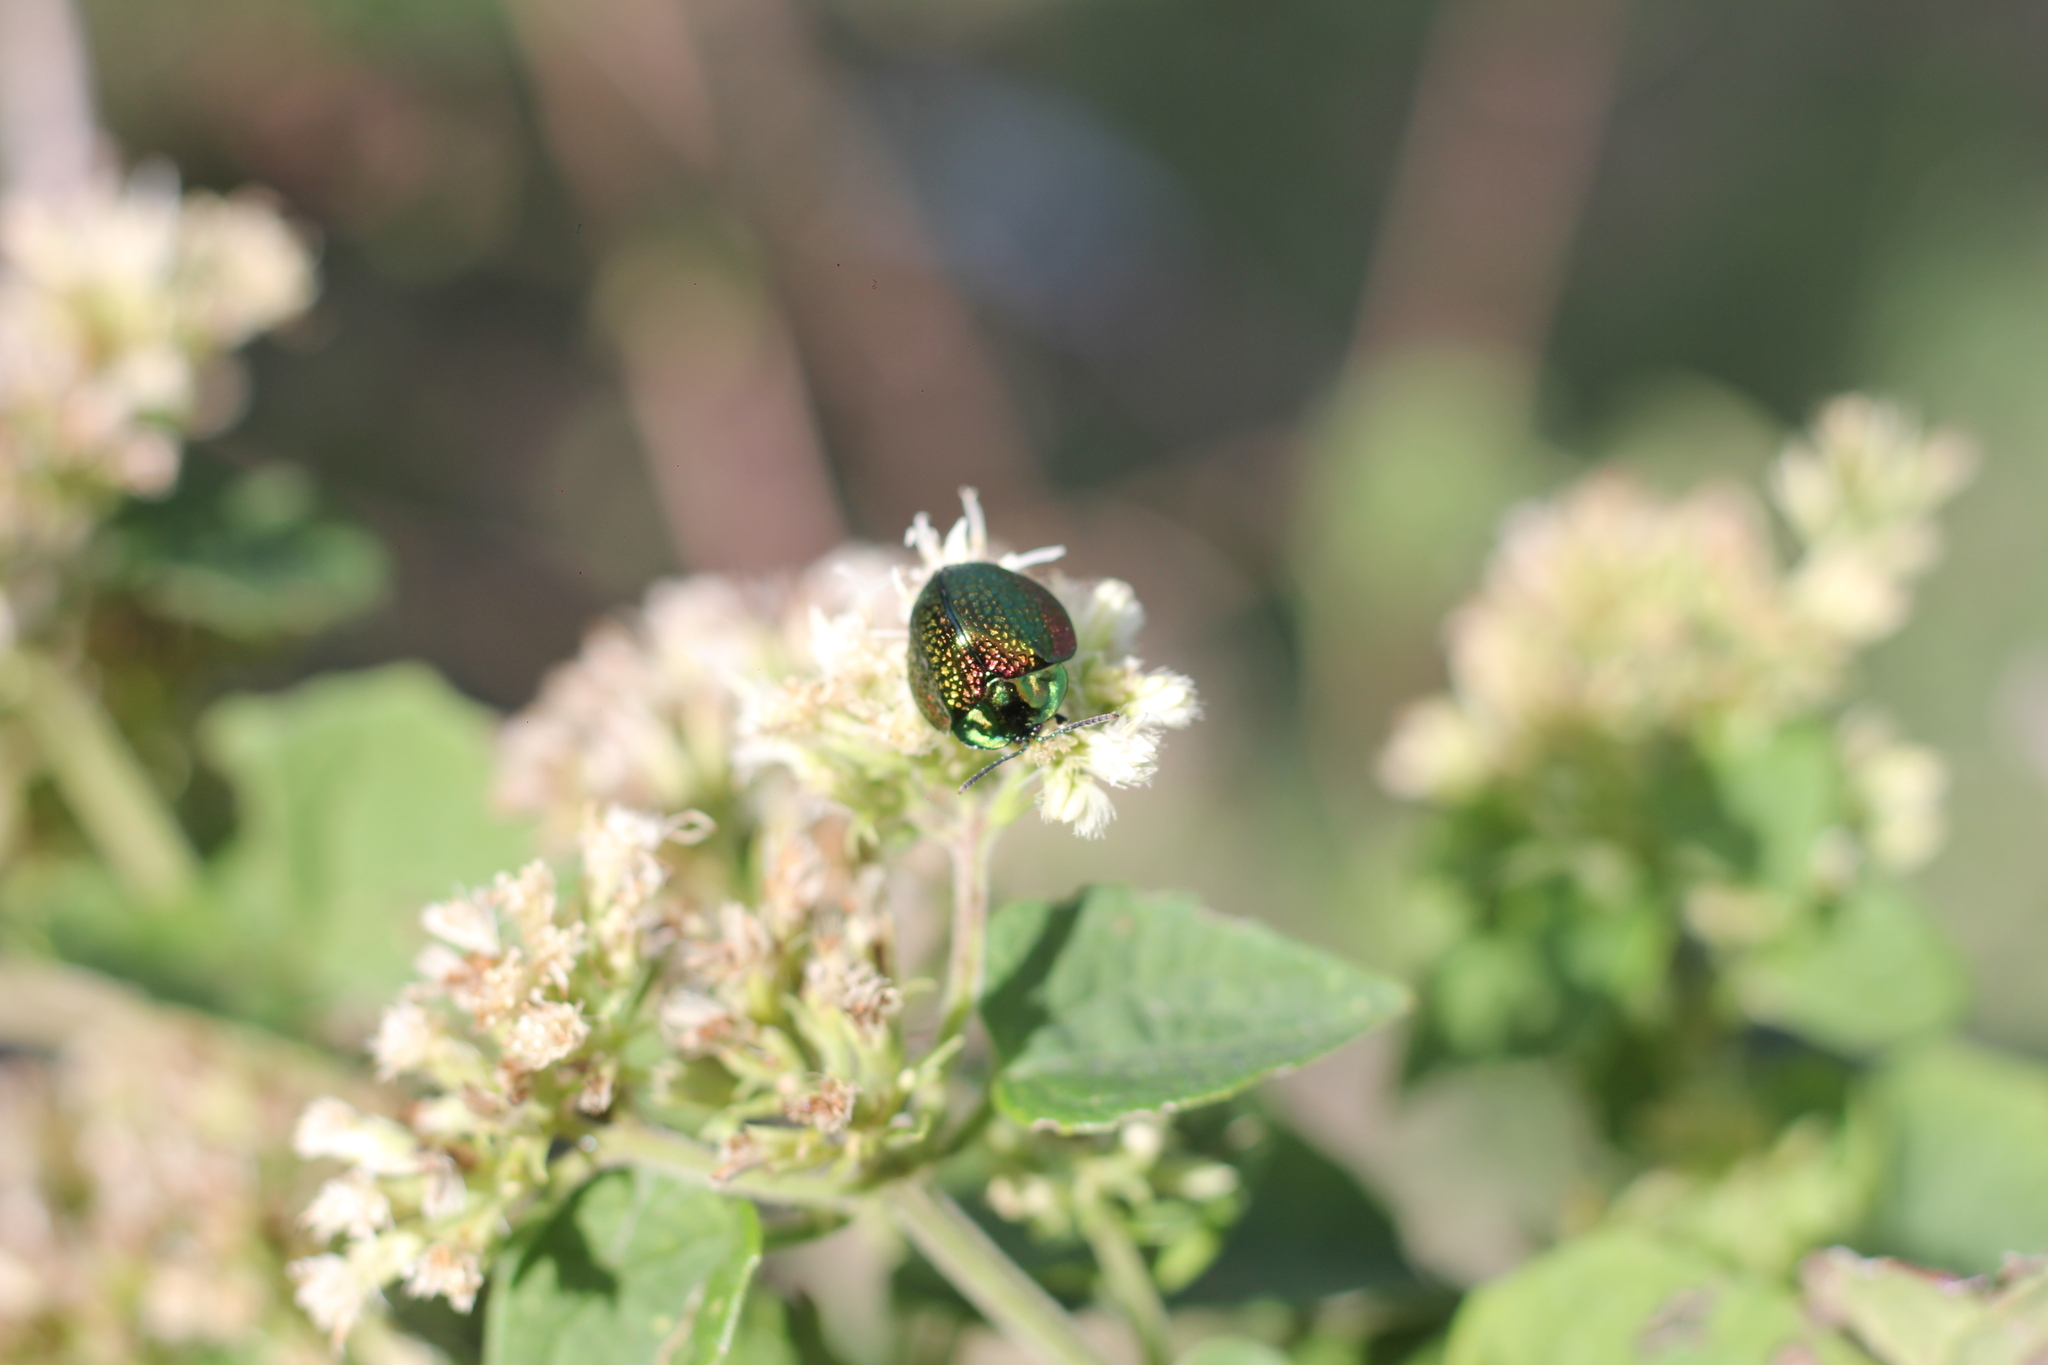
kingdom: Animalia
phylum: Arthropoda
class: Insecta
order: Coleoptera
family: Chrysomelidae
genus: Stolas
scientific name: Stolas festiva
